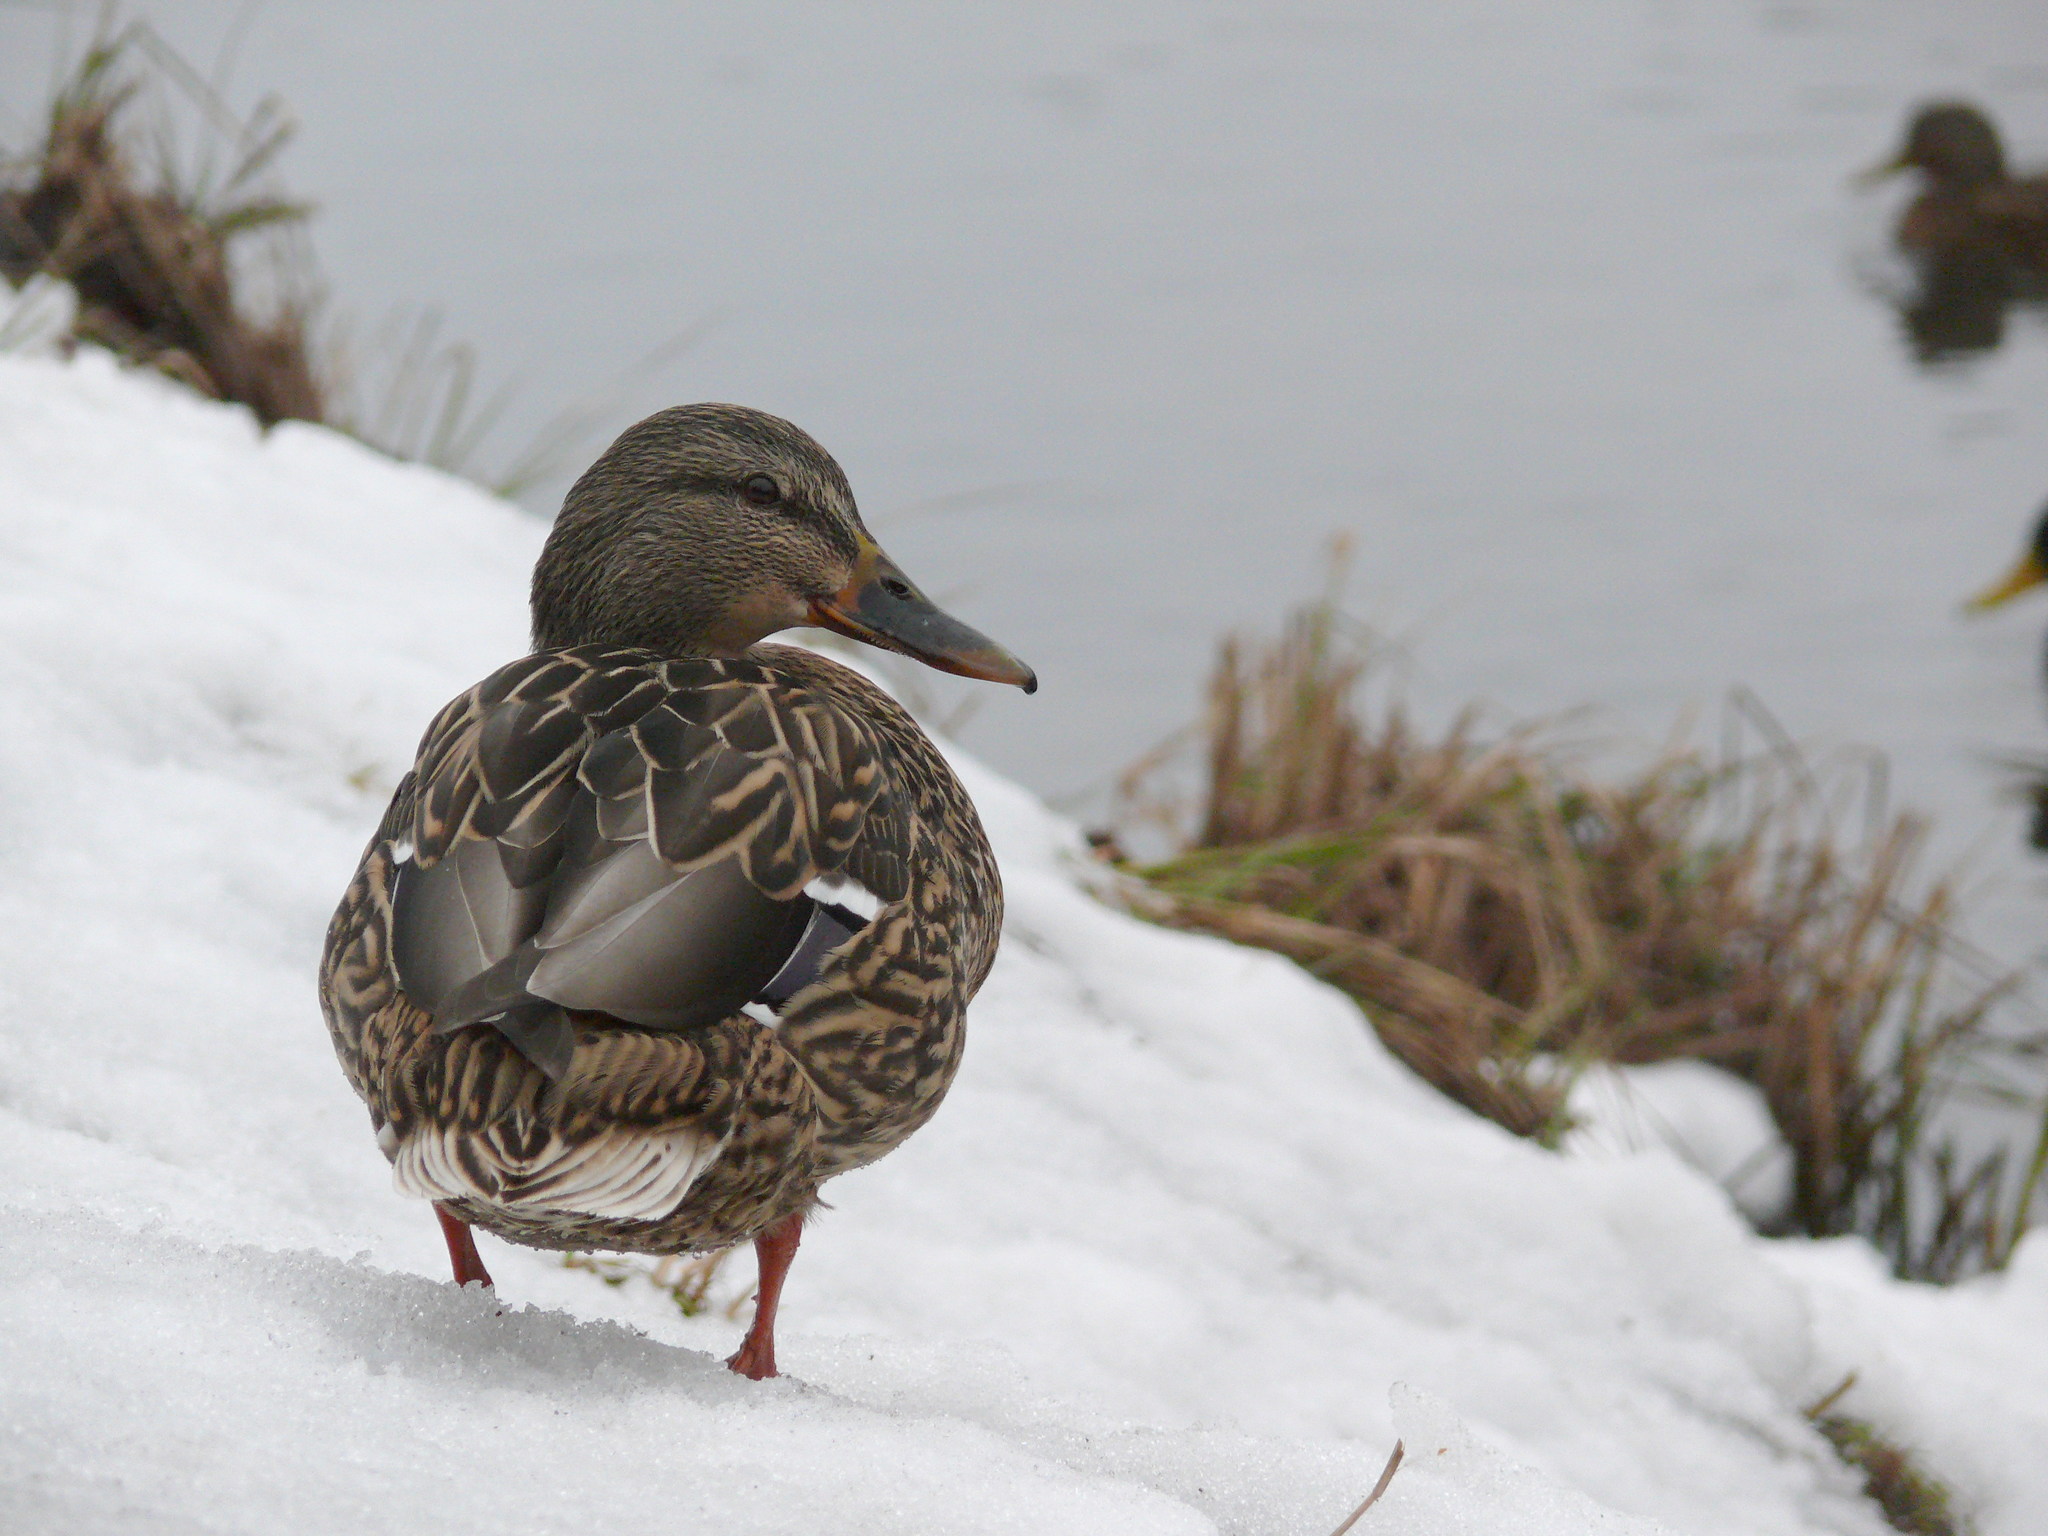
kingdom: Animalia
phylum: Chordata
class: Aves
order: Anseriformes
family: Anatidae
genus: Anas
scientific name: Anas platyrhynchos
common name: Mallard
